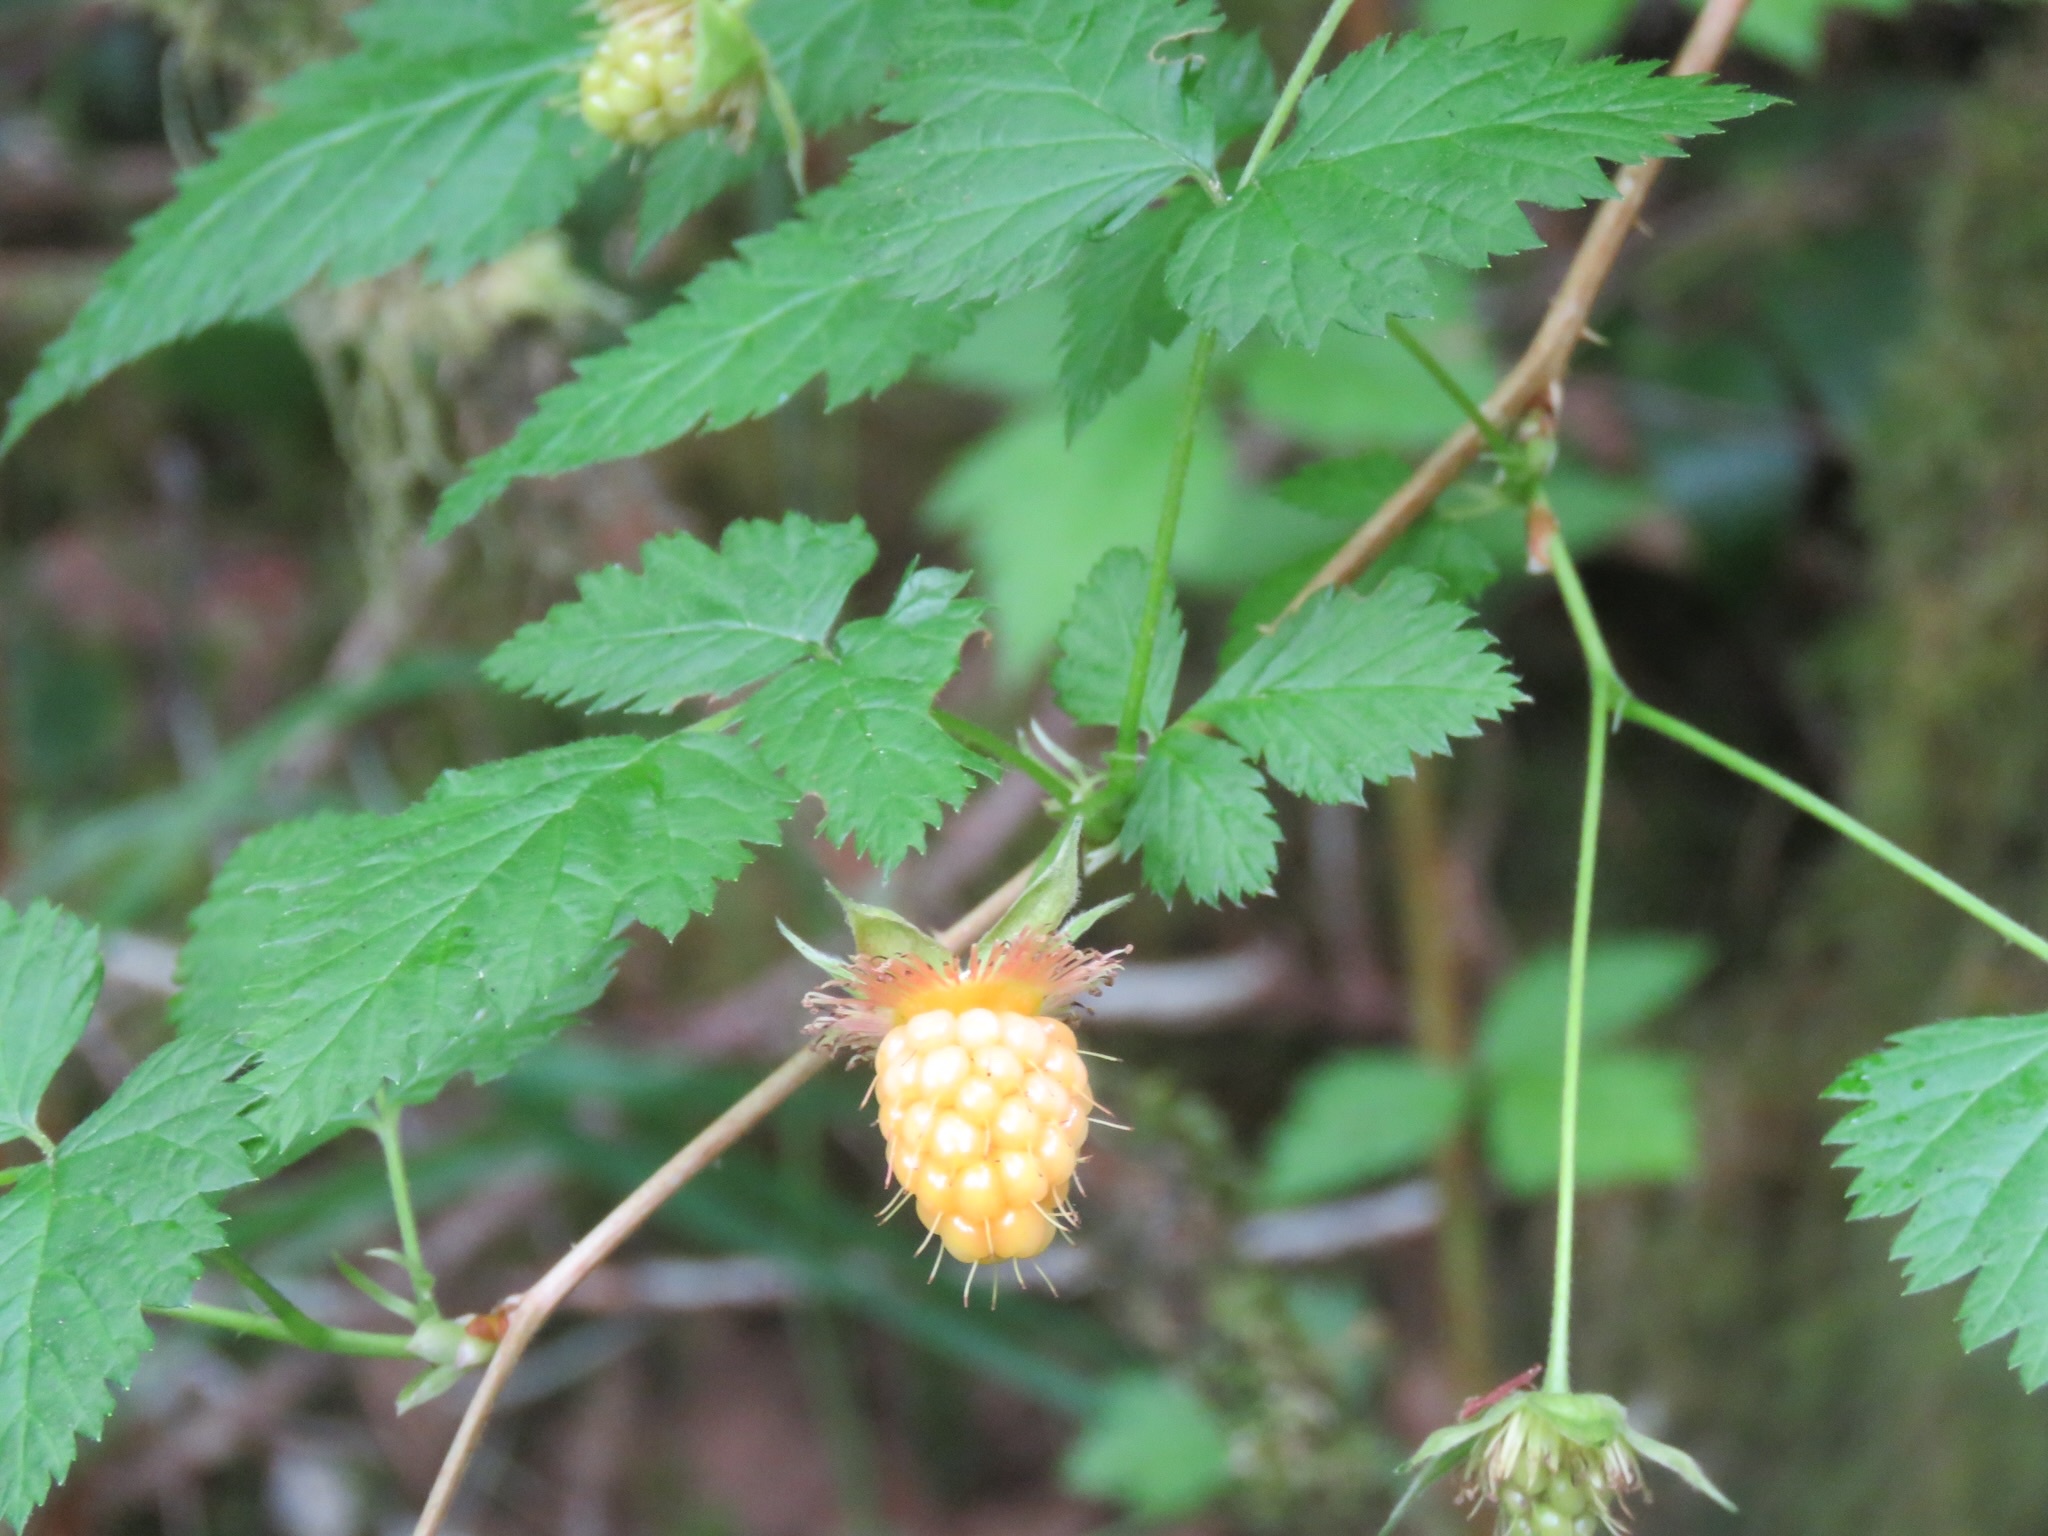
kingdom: Plantae
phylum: Tracheophyta
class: Magnoliopsida
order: Rosales
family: Rosaceae
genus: Rubus
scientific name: Rubus spectabilis
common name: Salmonberry
